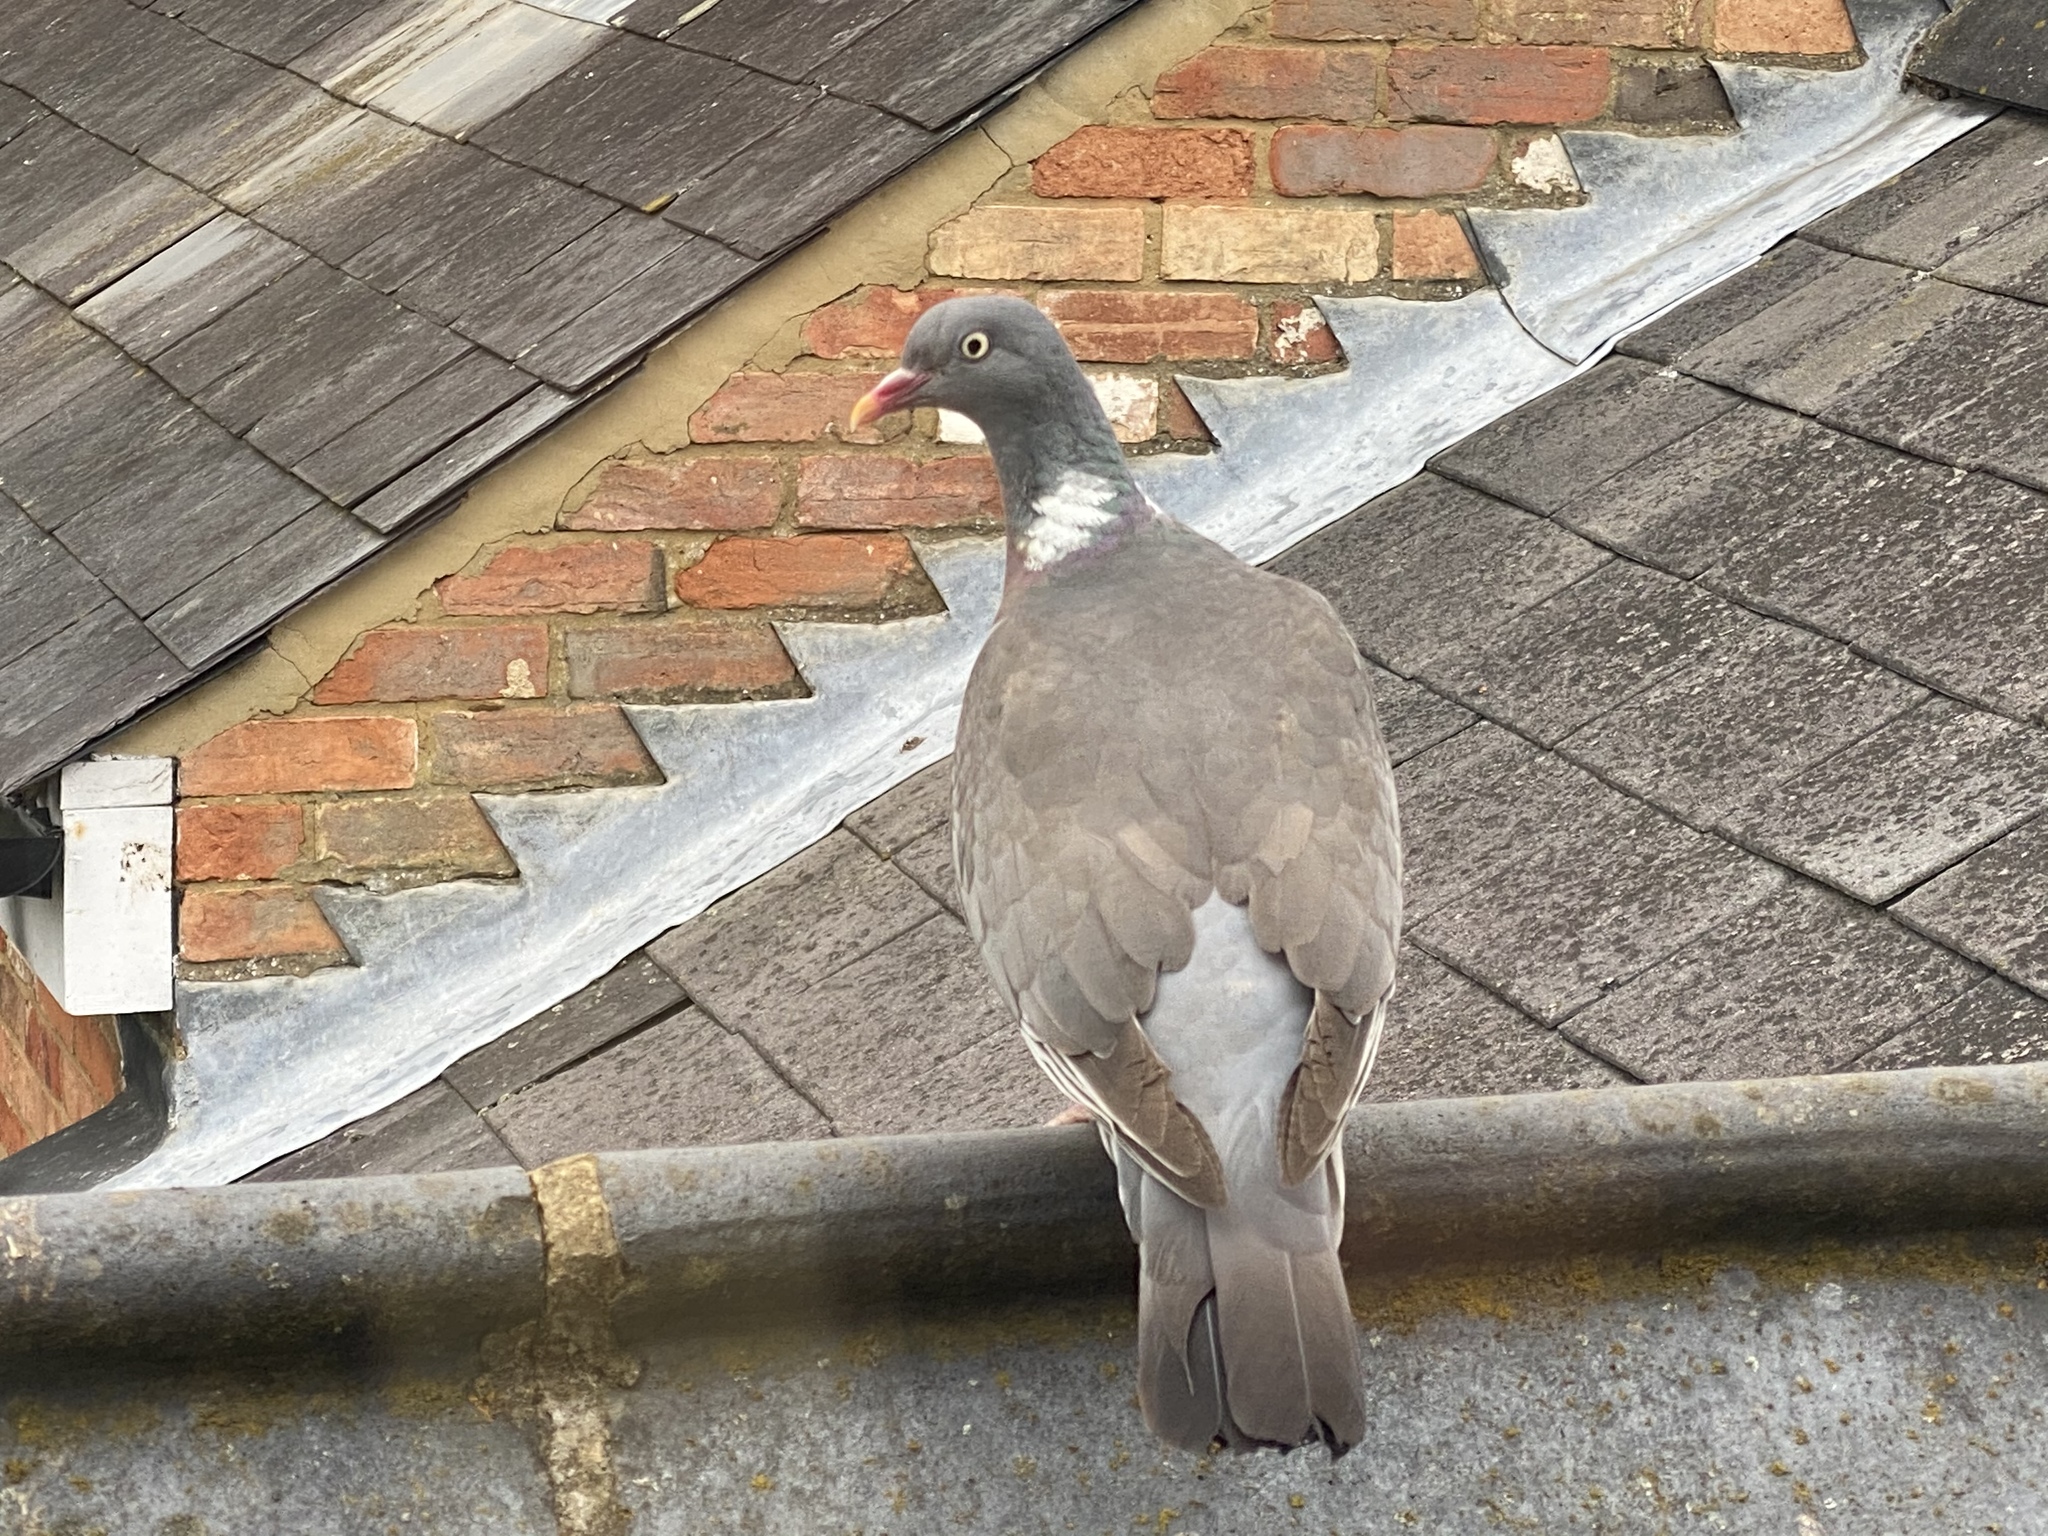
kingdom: Animalia
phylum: Chordata
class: Aves
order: Columbiformes
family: Columbidae
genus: Columba
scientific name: Columba palumbus
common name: Common wood pigeon
